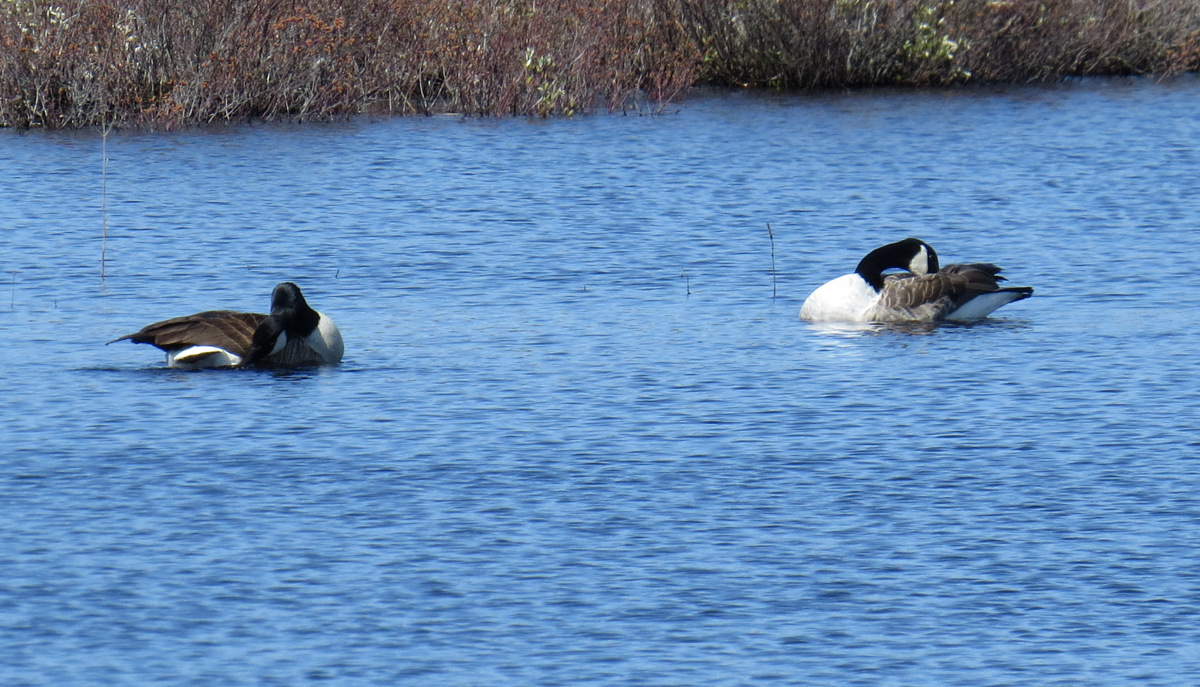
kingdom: Animalia
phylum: Chordata
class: Aves
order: Anseriformes
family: Anatidae
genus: Branta
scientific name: Branta canadensis
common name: Canada goose
